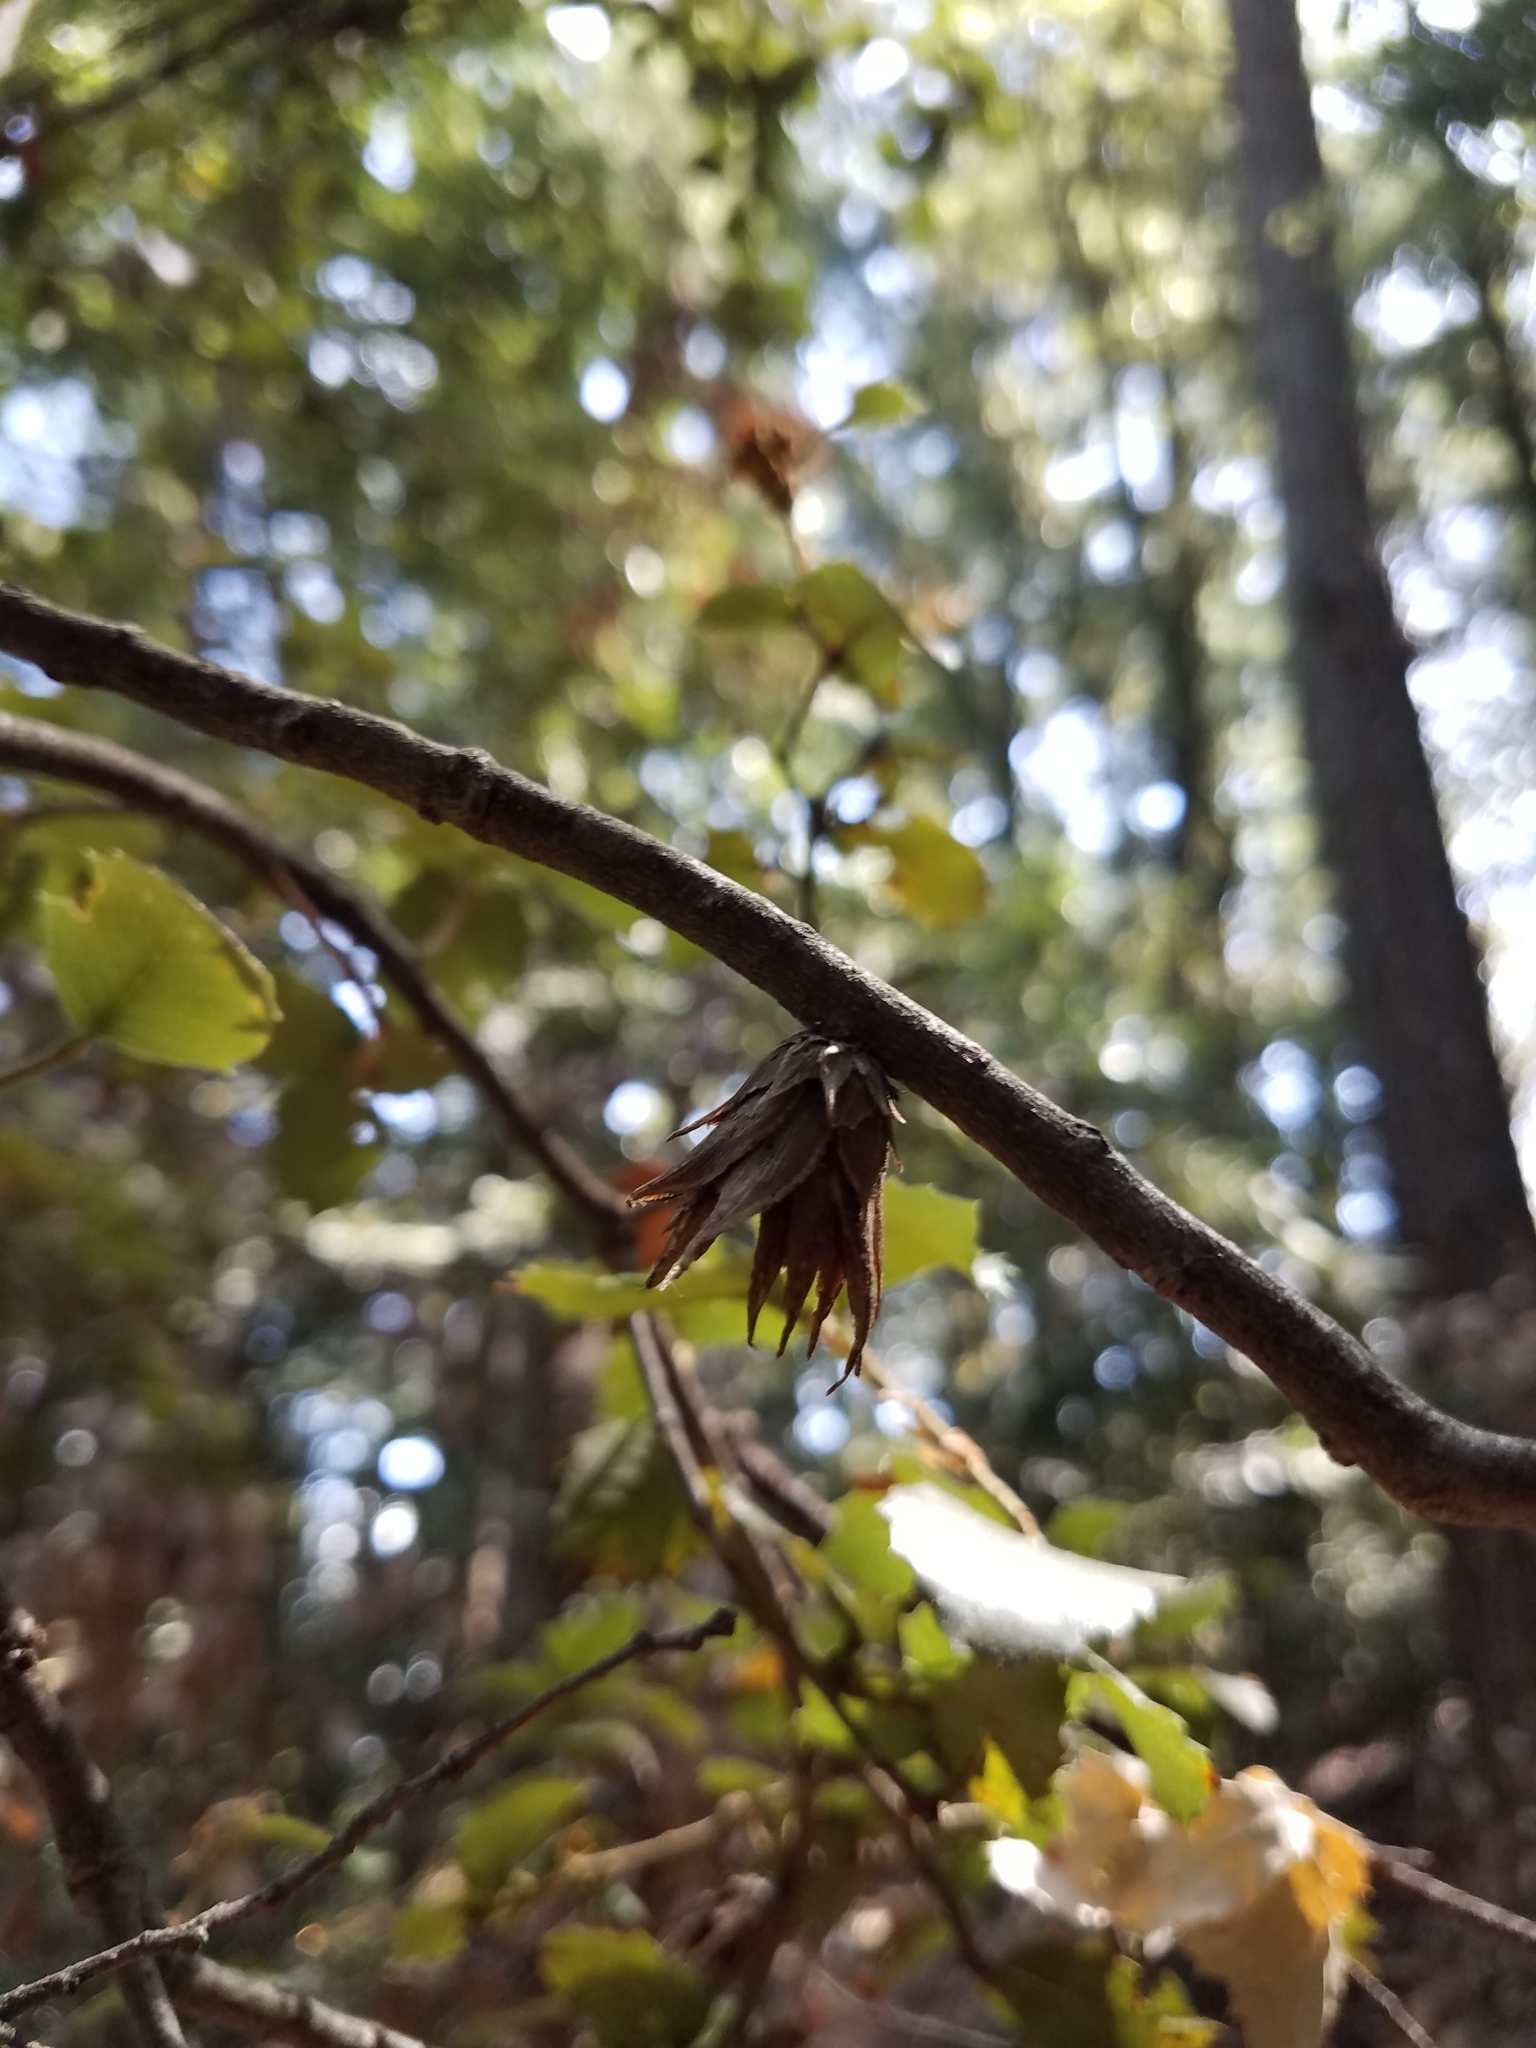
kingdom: Animalia
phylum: Arthropoda
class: Insecta
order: Hymenoptera
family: Cynipidae
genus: Andricus
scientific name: Andricus
